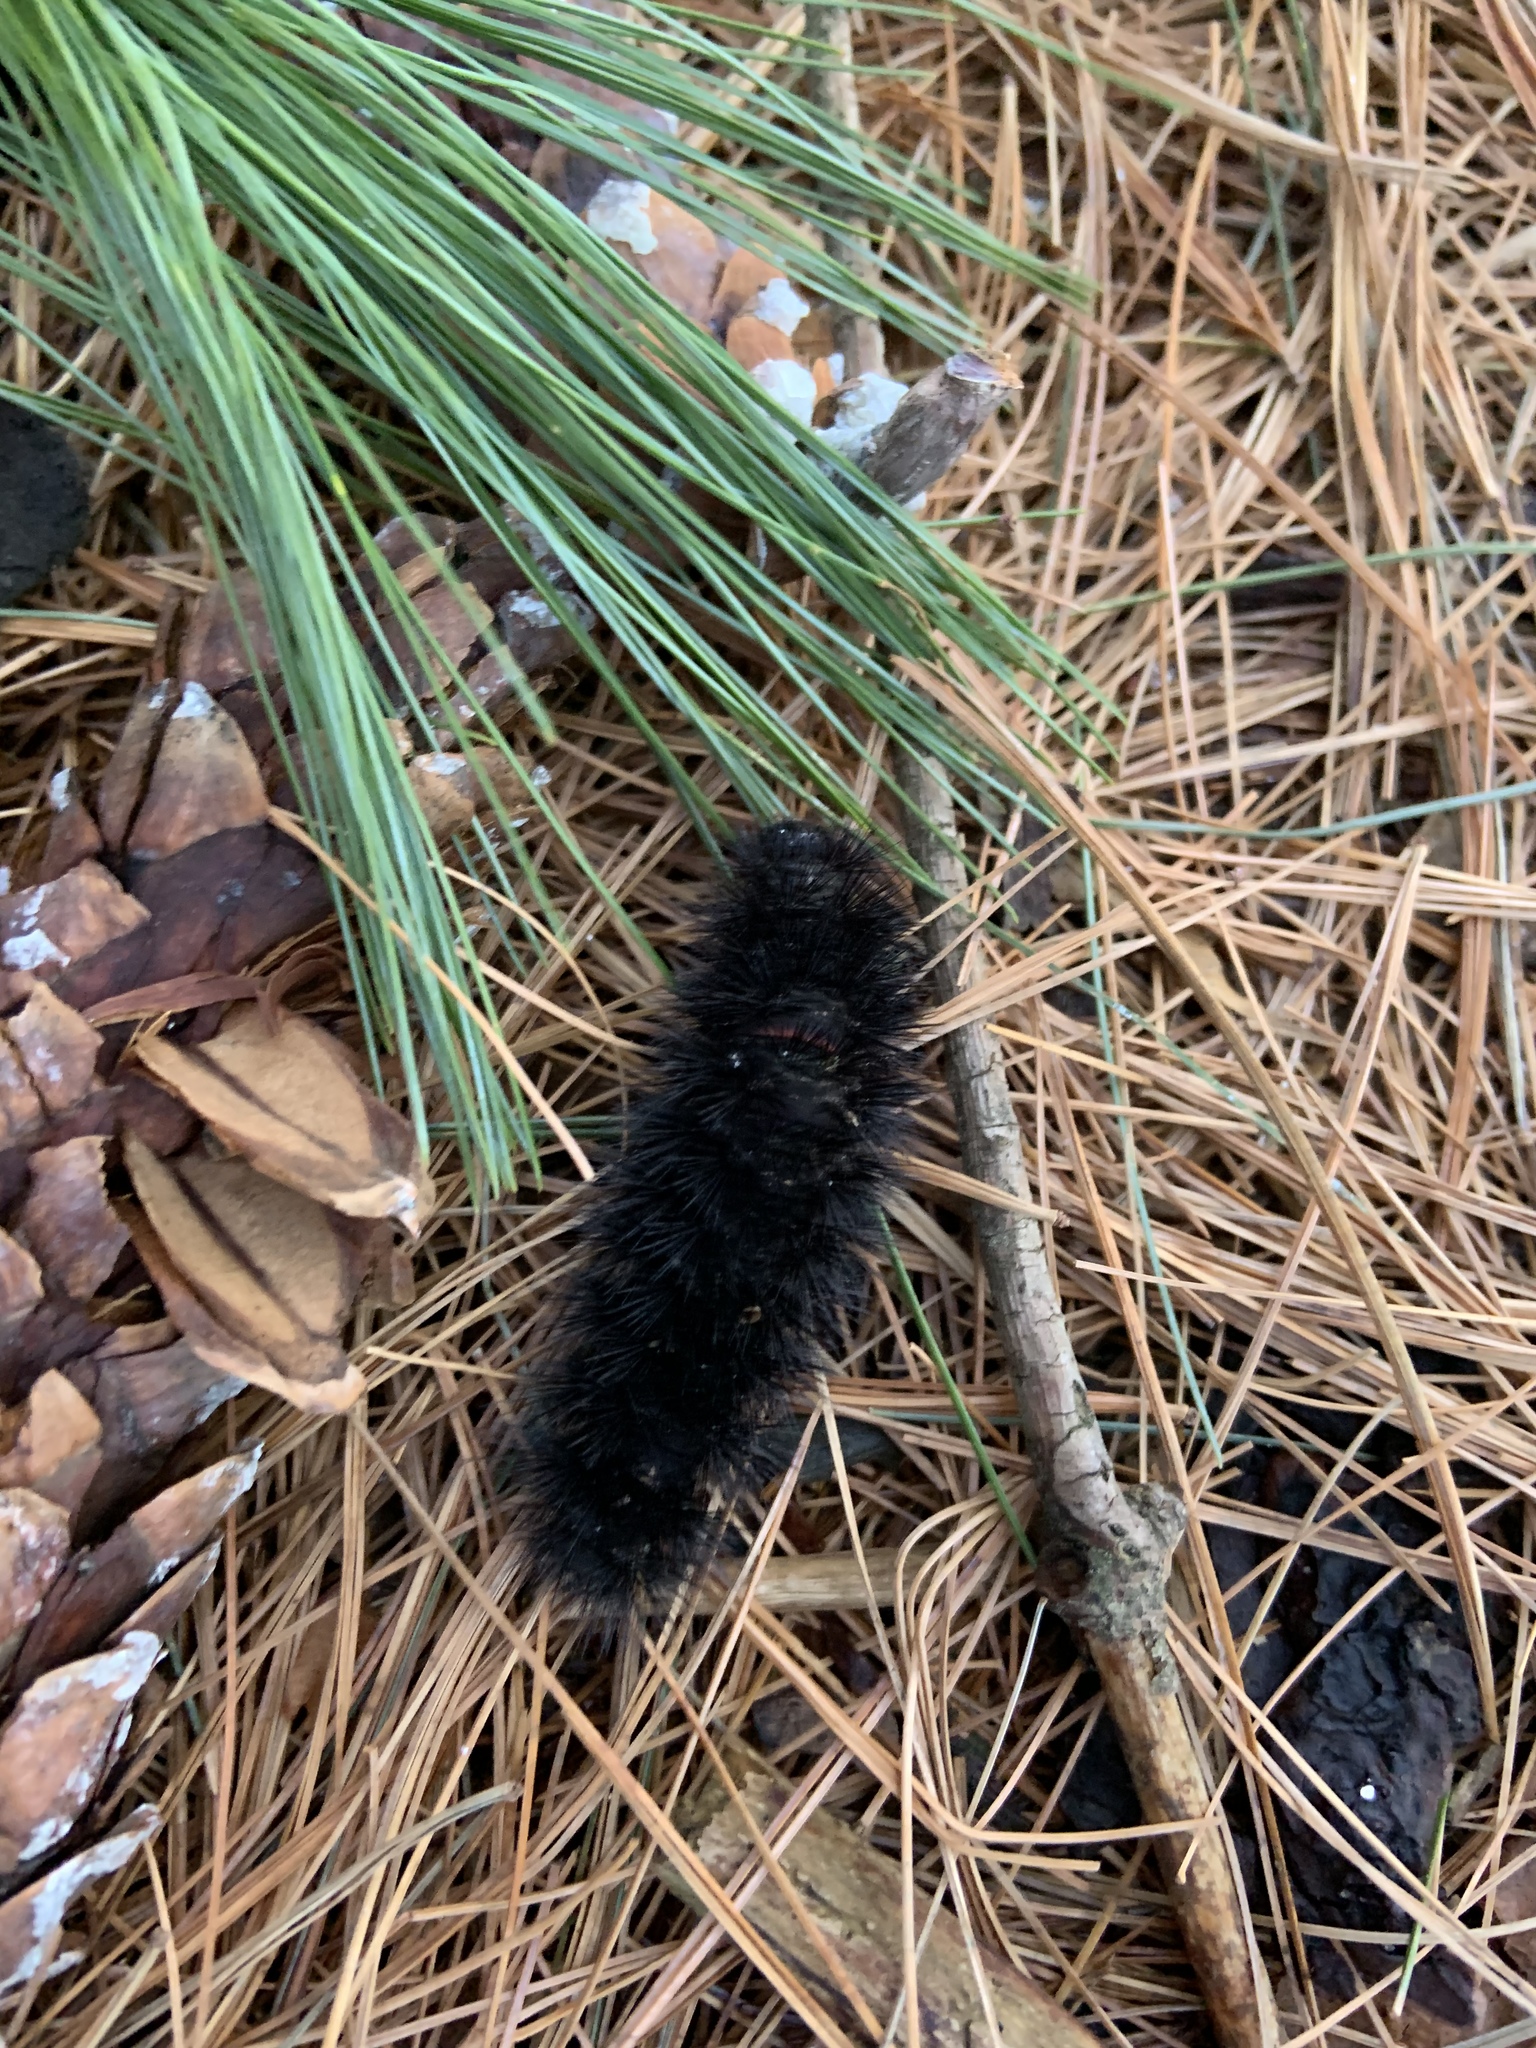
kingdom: Animalia
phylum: Arthropoda
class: Insecta
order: Lepidoptera
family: Erebidae
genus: Hypercompe
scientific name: Hypercompe scribonia
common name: Giant leopard moth
